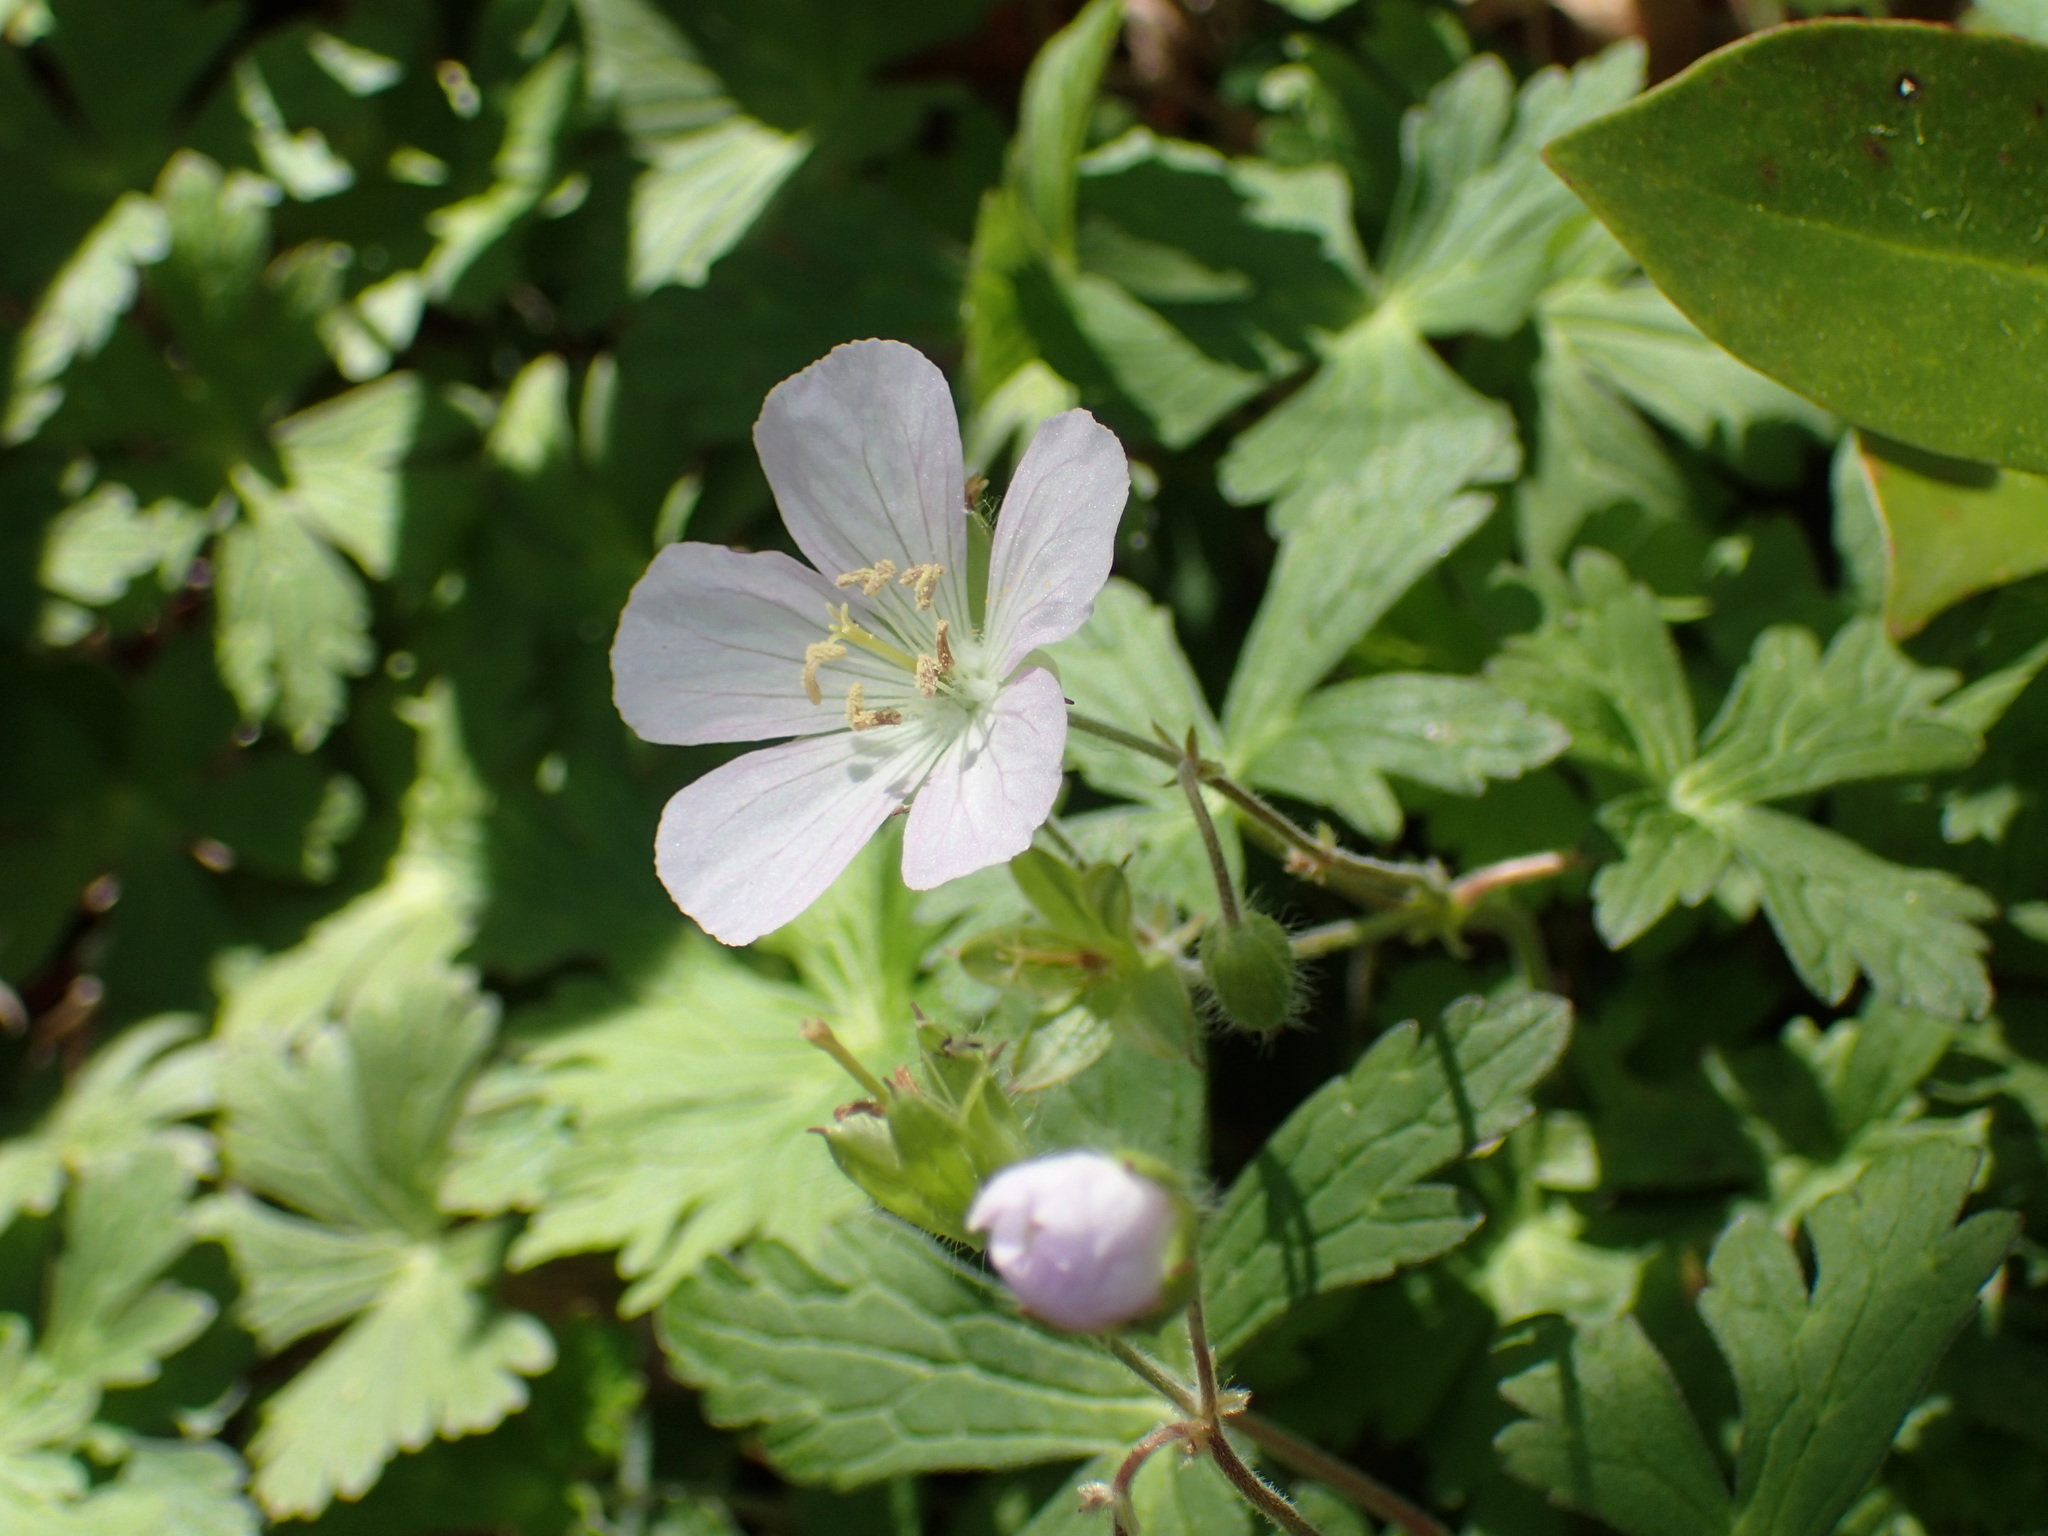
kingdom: Plantae
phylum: Tracheophyta
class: Magnoliopsida
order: Geraniales
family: Geraniaceae
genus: Geranium
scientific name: Geranium maculatum
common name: Spotted geranium
